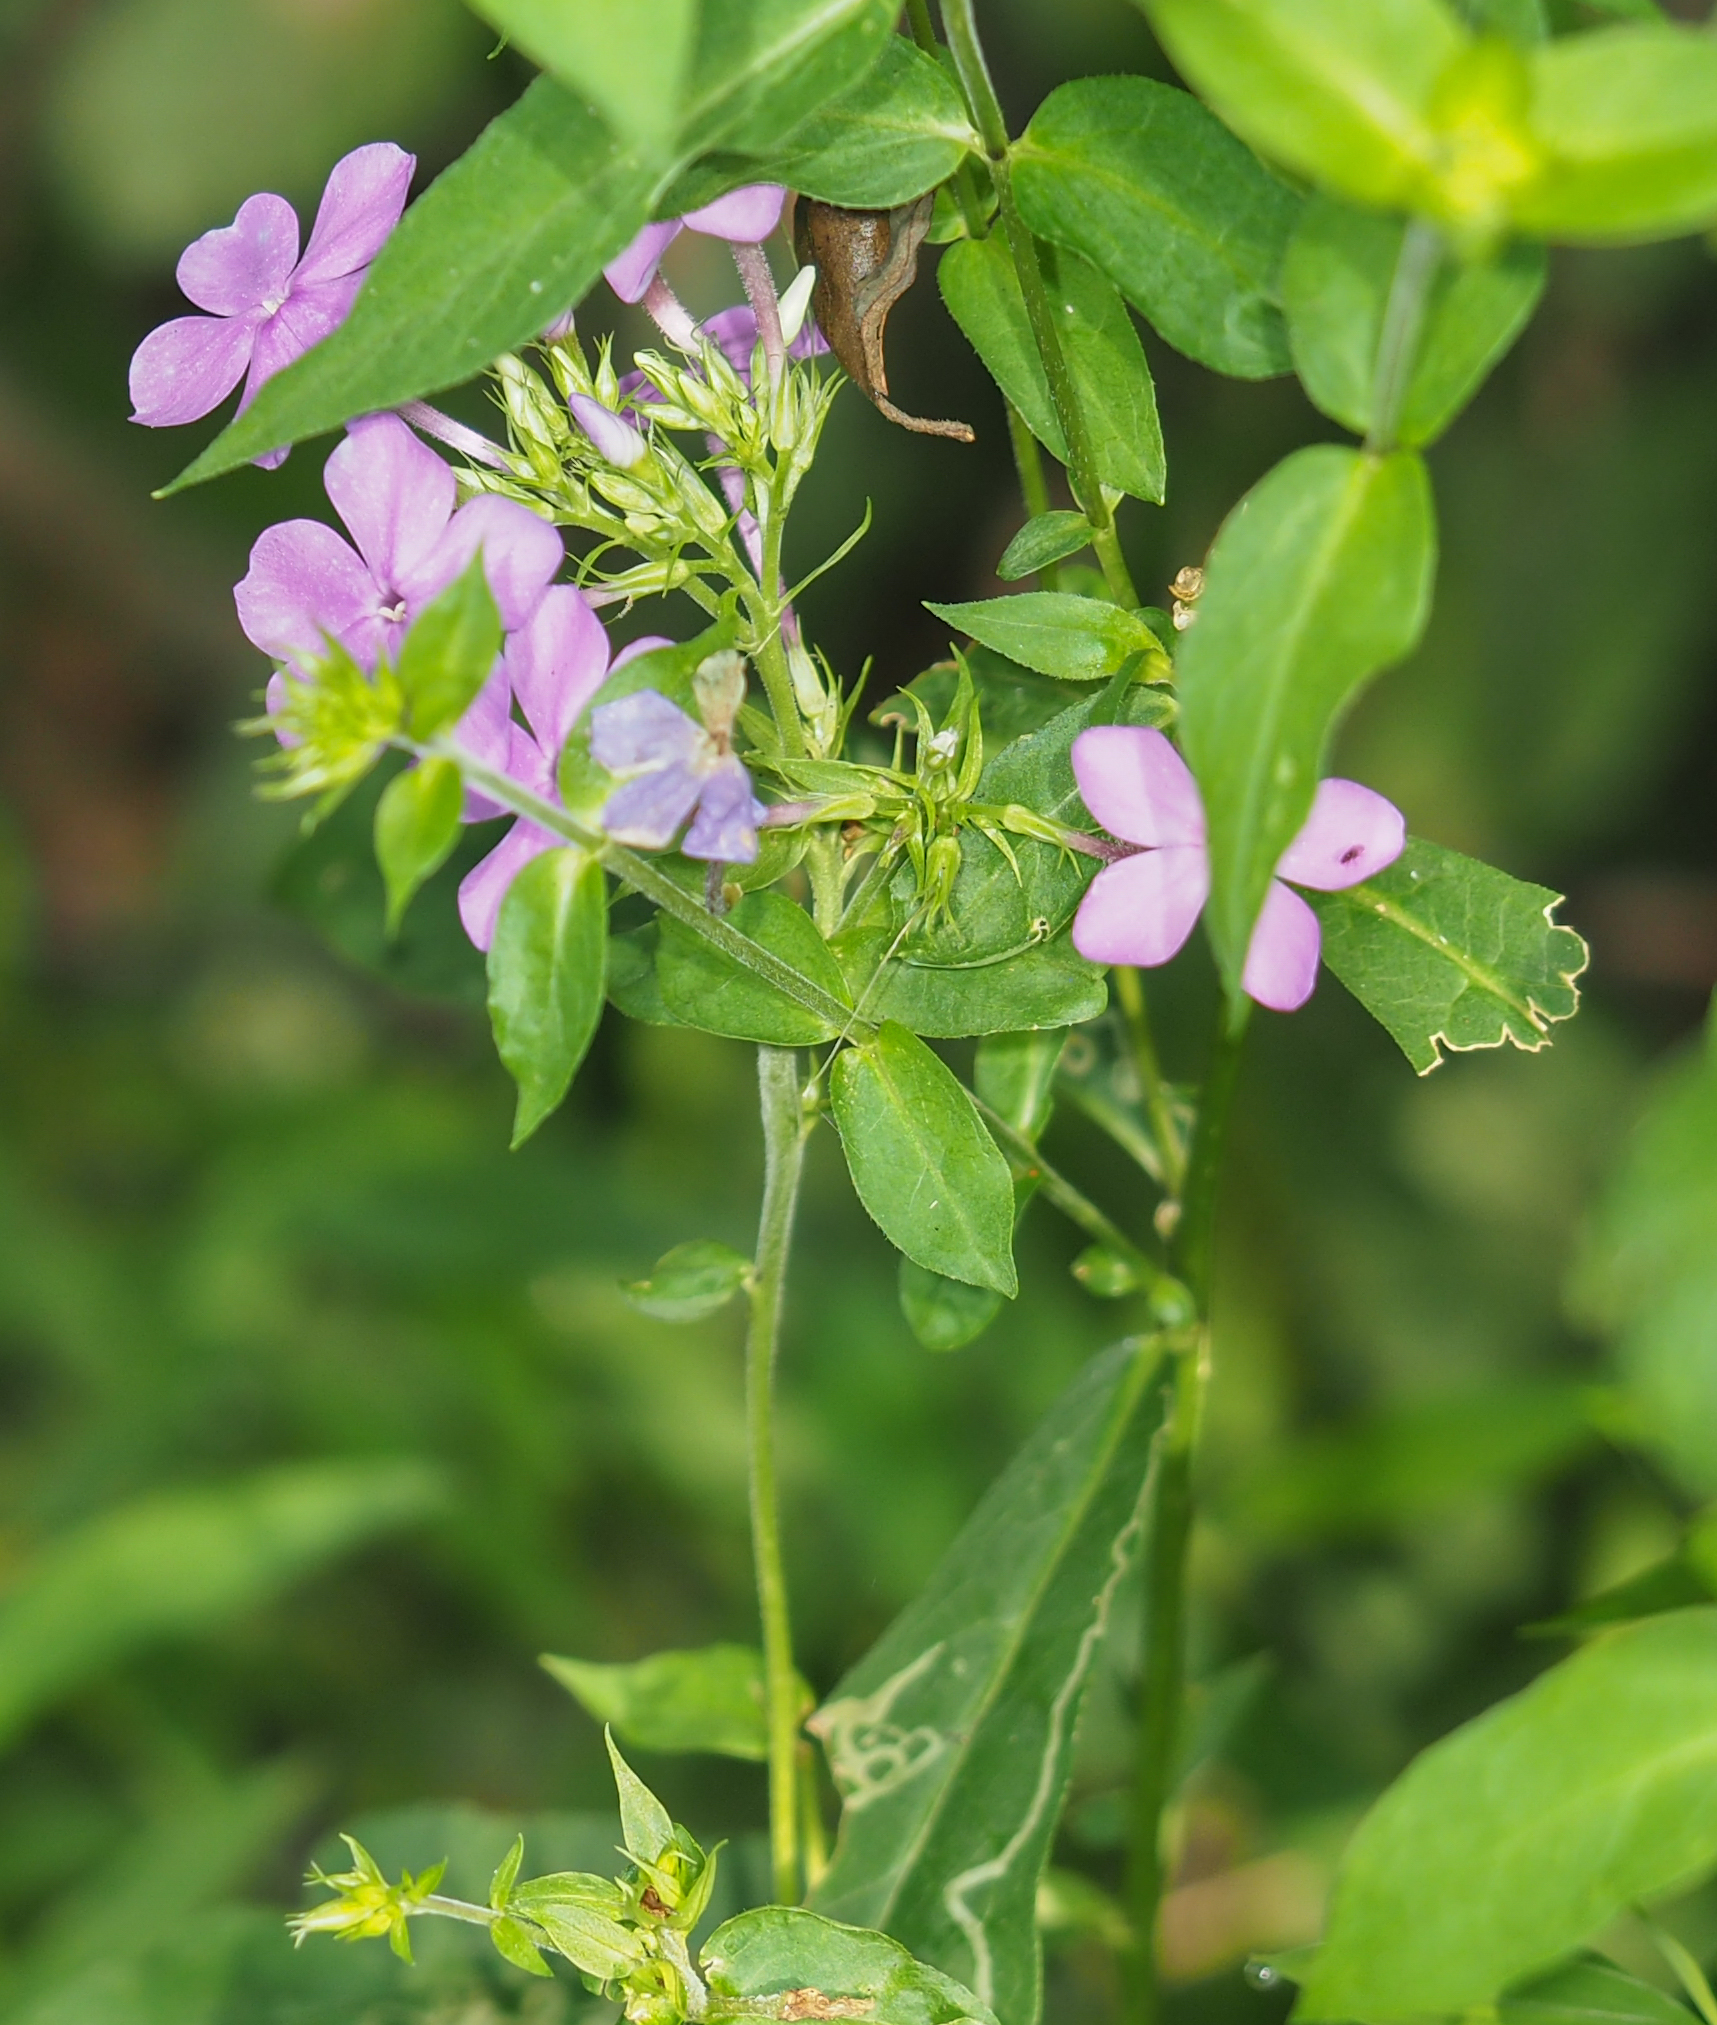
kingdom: Plantae
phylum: Tracheophyta
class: Magnoliopsida
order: Ericales
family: Polemoniaceae
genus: Phlox
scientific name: Phlox paniculata
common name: Fall phlox
